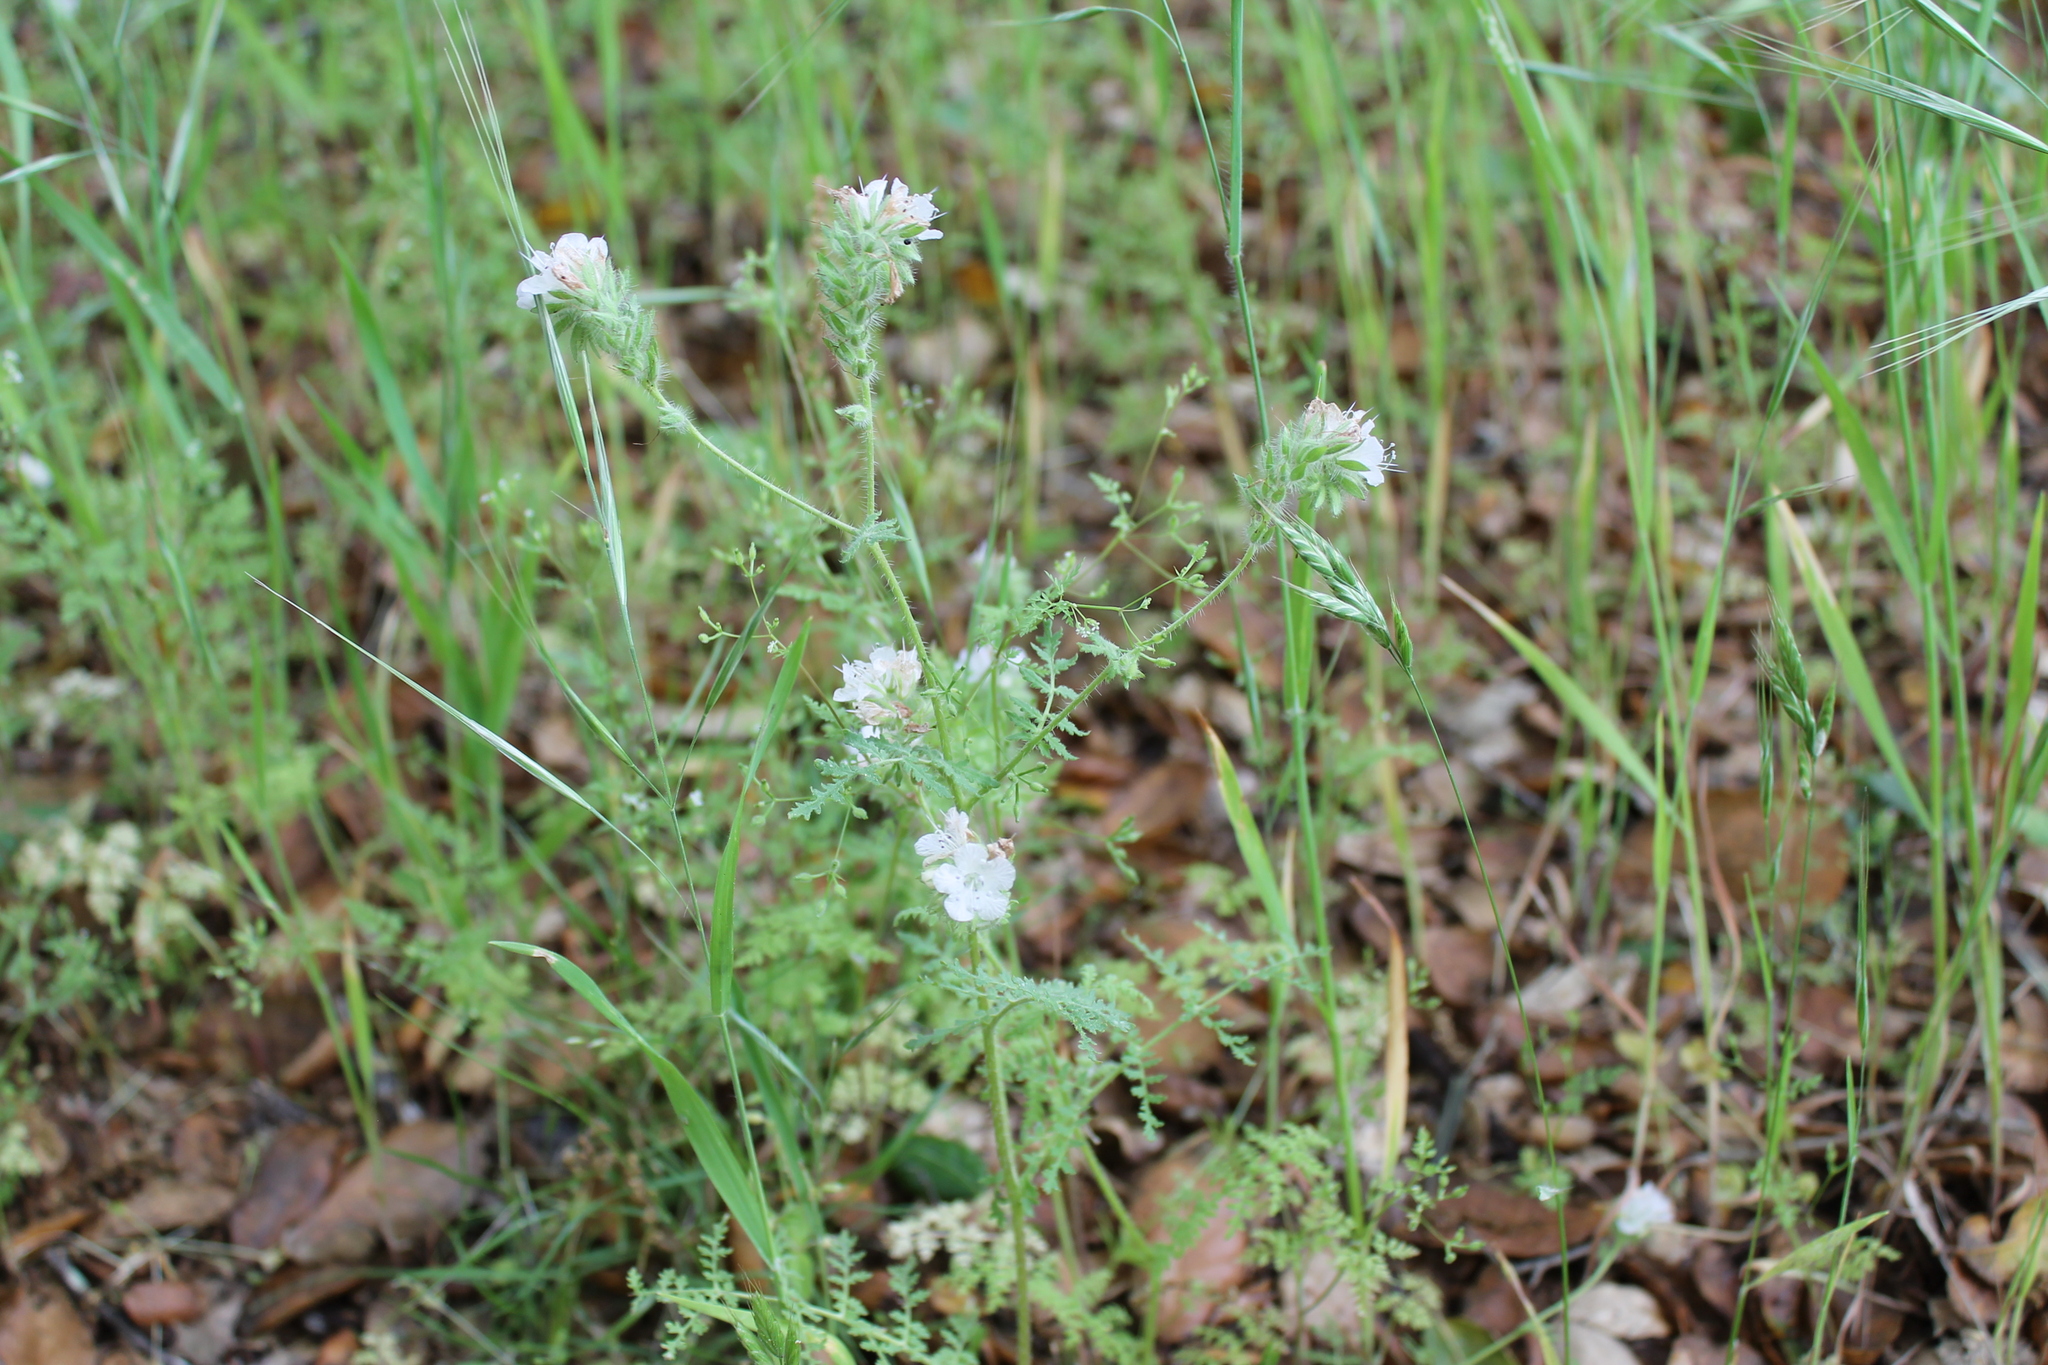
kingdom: Plantae
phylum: Tracheophyta
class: Magnoliopsida
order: Boraginales
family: Hydrophyllaceae
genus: Phacelia
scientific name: Phacelia distans
